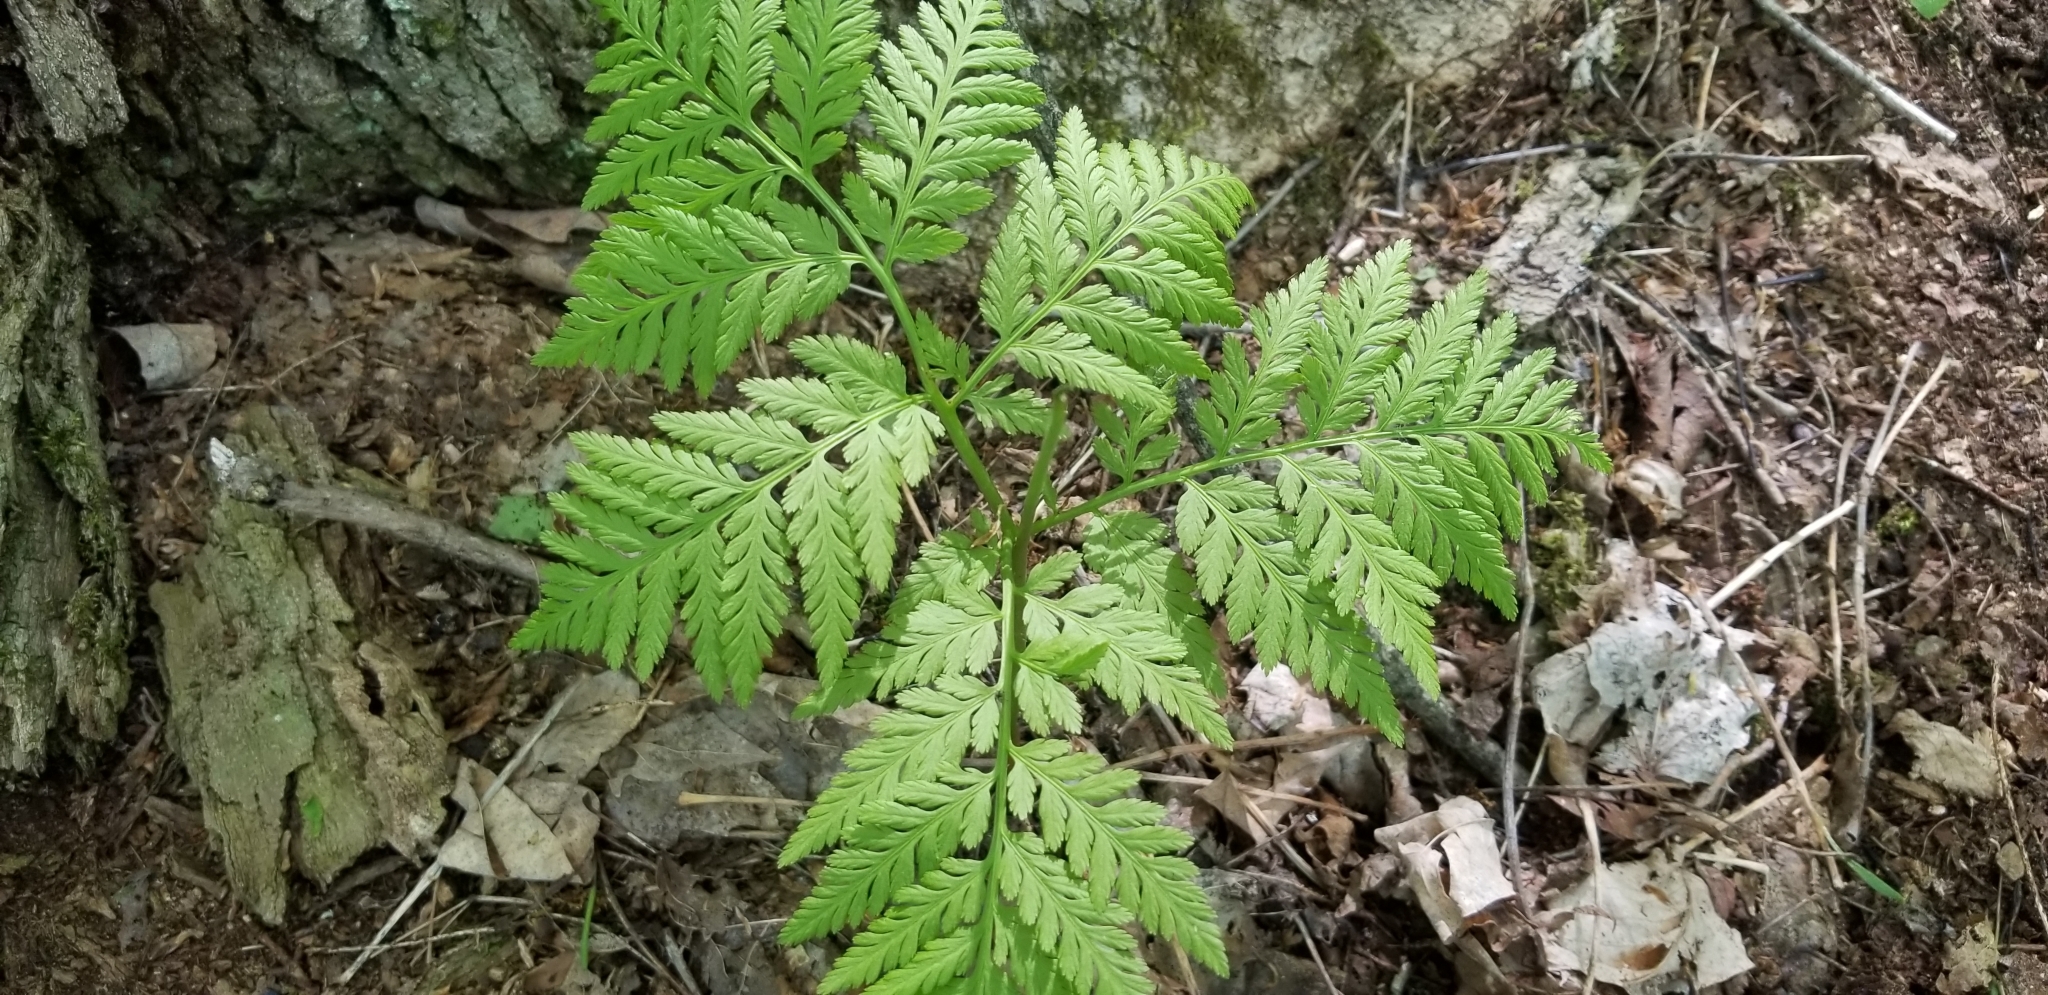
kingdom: Plantae
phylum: Tracheophyta
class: Polypodiopsida
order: Ophioglossales
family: Ophioglossaceae
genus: Botrypus
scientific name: Botrypus virginianus
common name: Common grapefern
